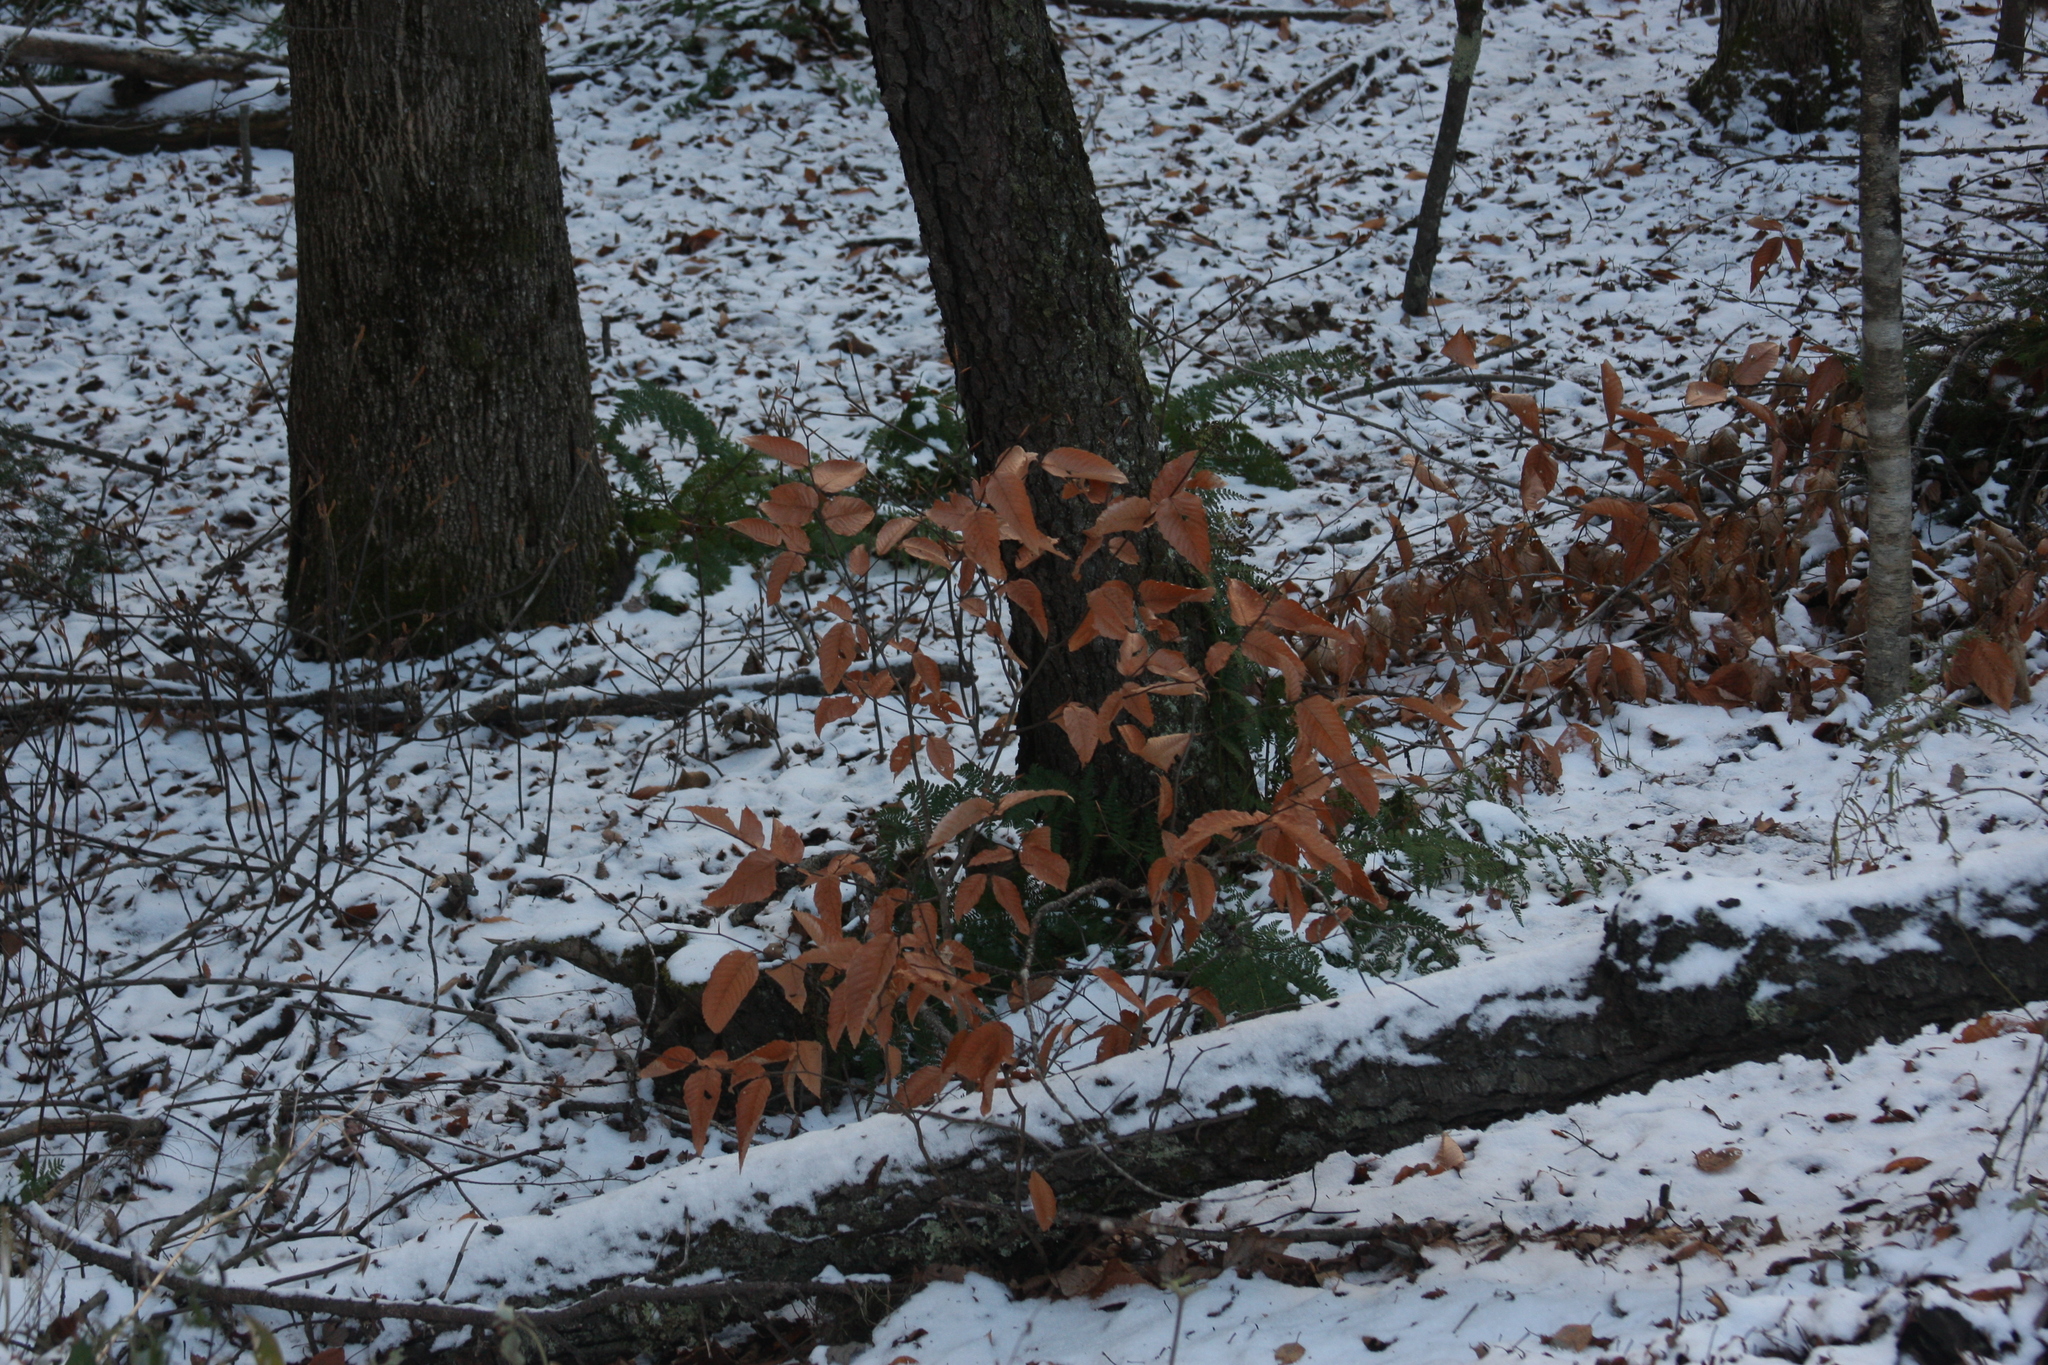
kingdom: Plantae
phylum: Tracheophyta
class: Magnoliopsida
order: Fagales
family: Fagaceae
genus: Fagus
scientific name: Fagus grandifolia
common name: American beech
